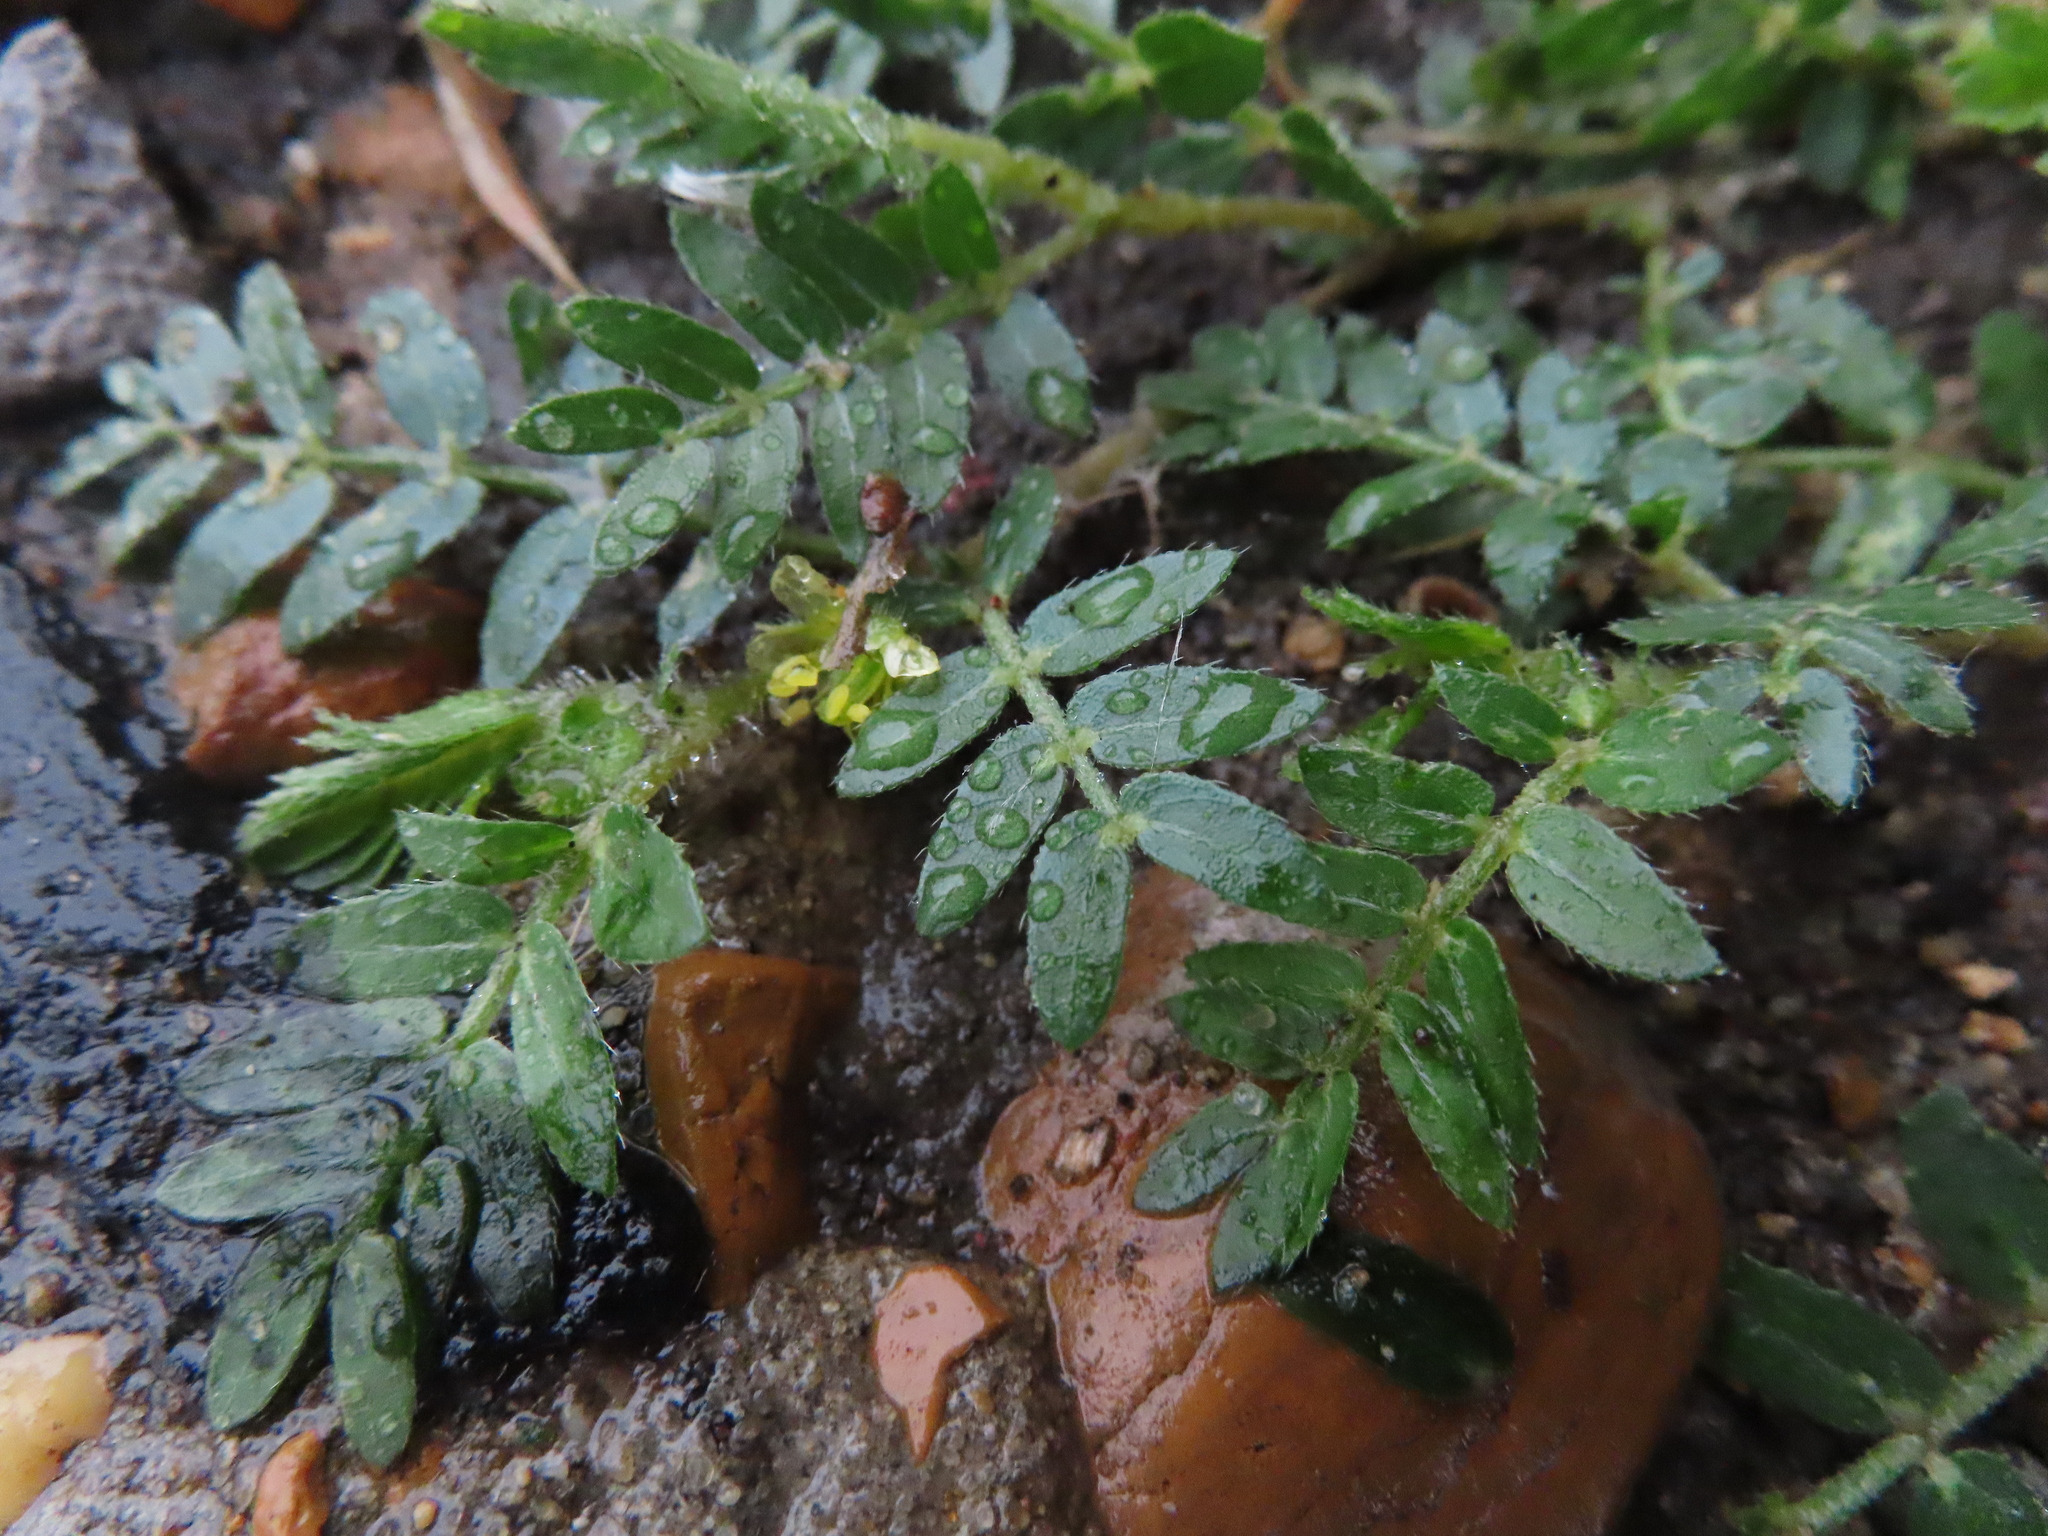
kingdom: Plantae
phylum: Tracheophyta
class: Magnoliopsida
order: Zygophyllales
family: Zygophyllaceae
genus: Tribulus
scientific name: Tribulus terrestris
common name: Puncturevine
